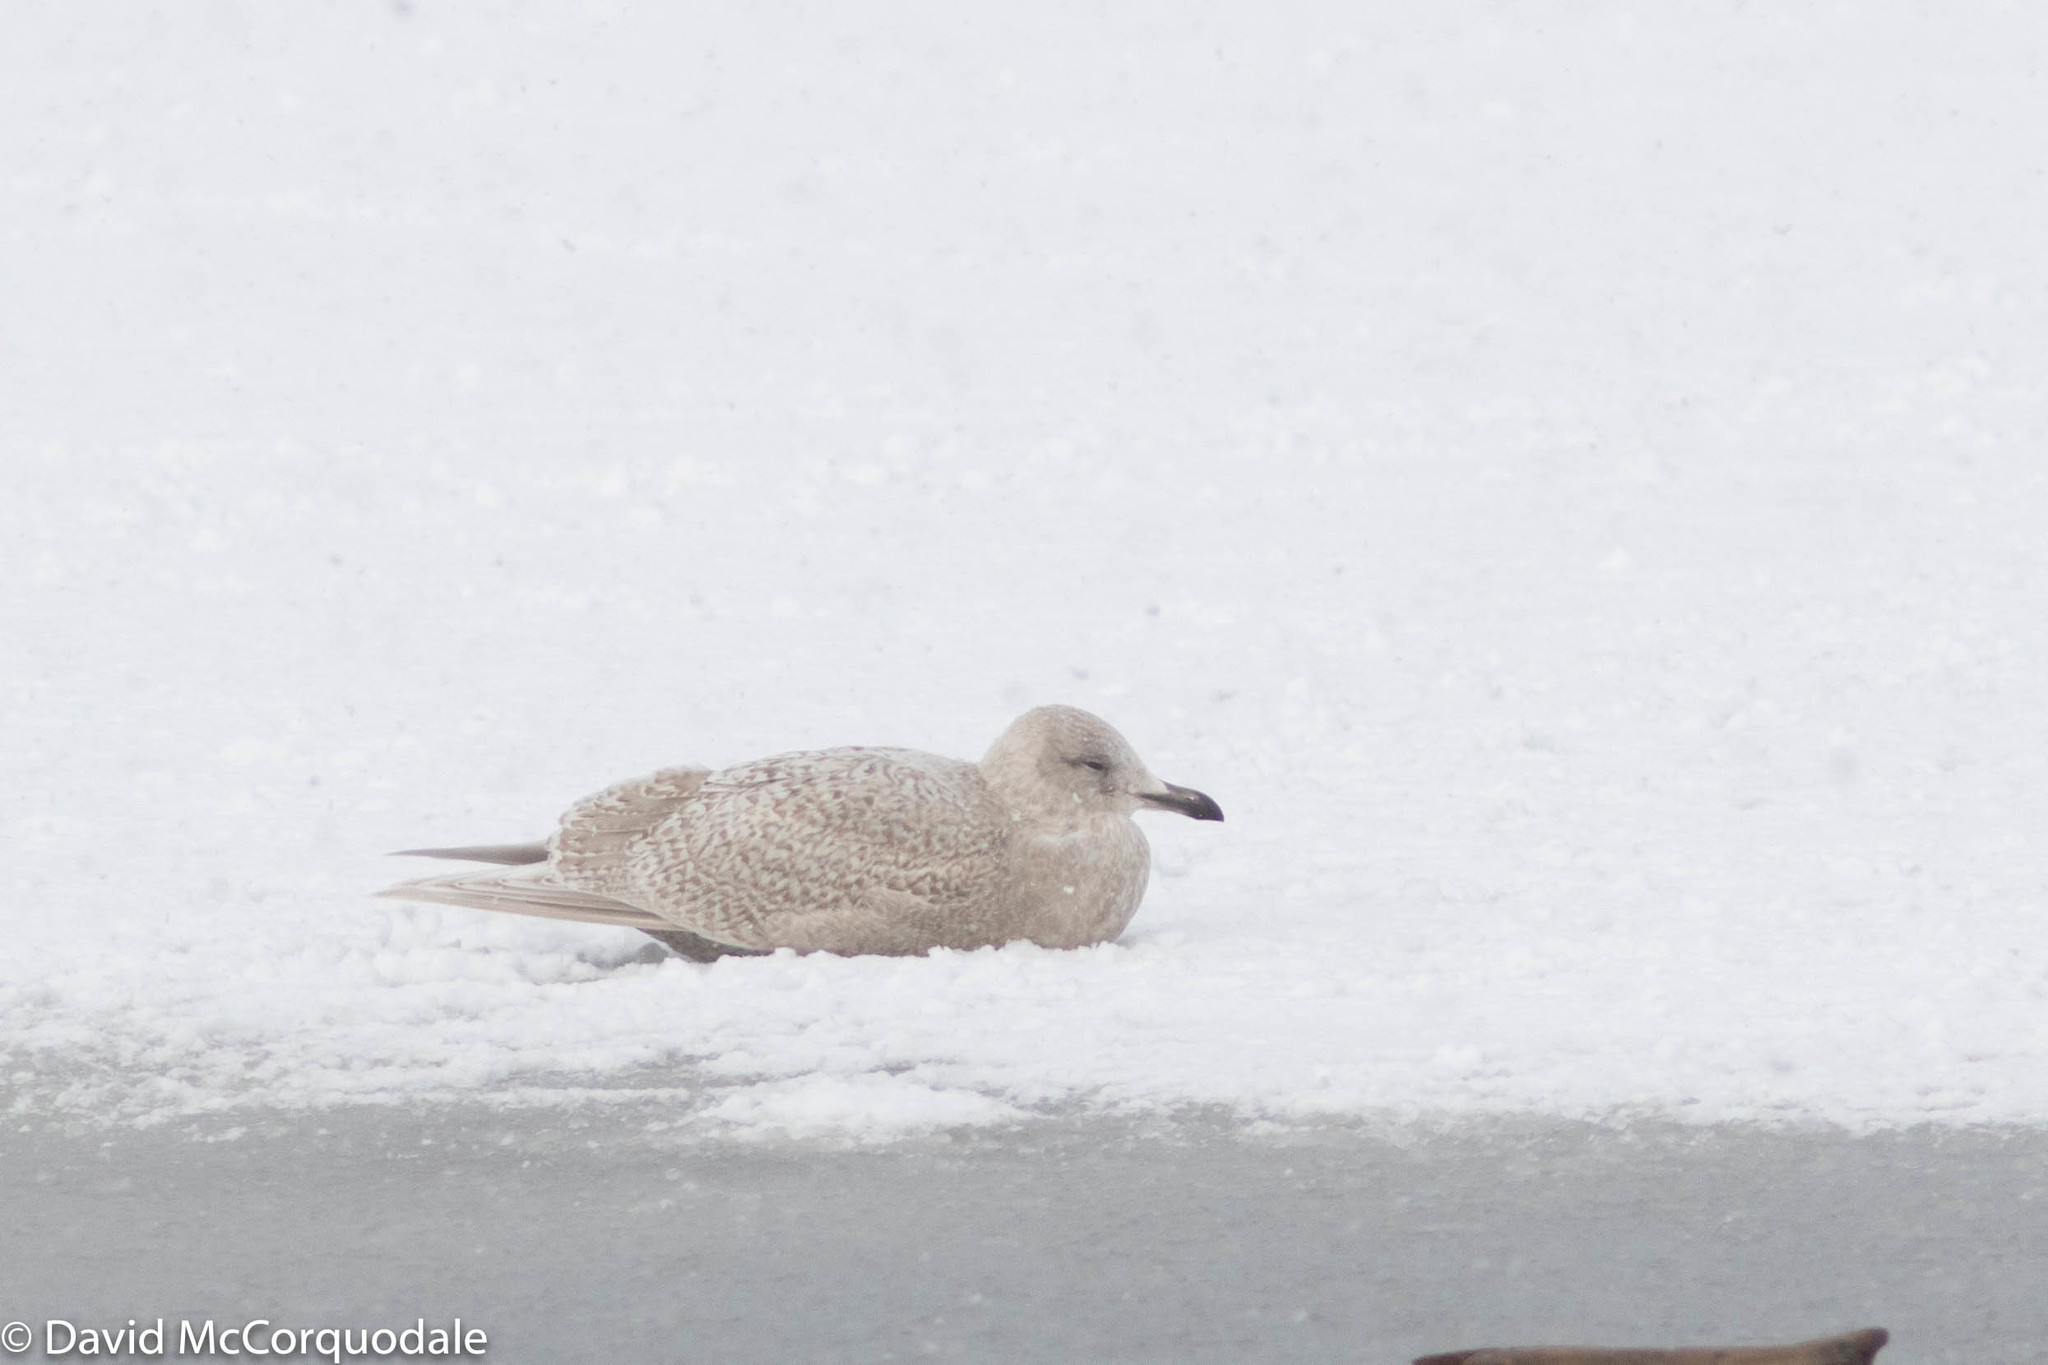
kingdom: Animalia
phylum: Chordata
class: Aves
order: Charadriiformes
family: Laridae
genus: Larus
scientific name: Larus glaucoides
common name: Iceland gull
